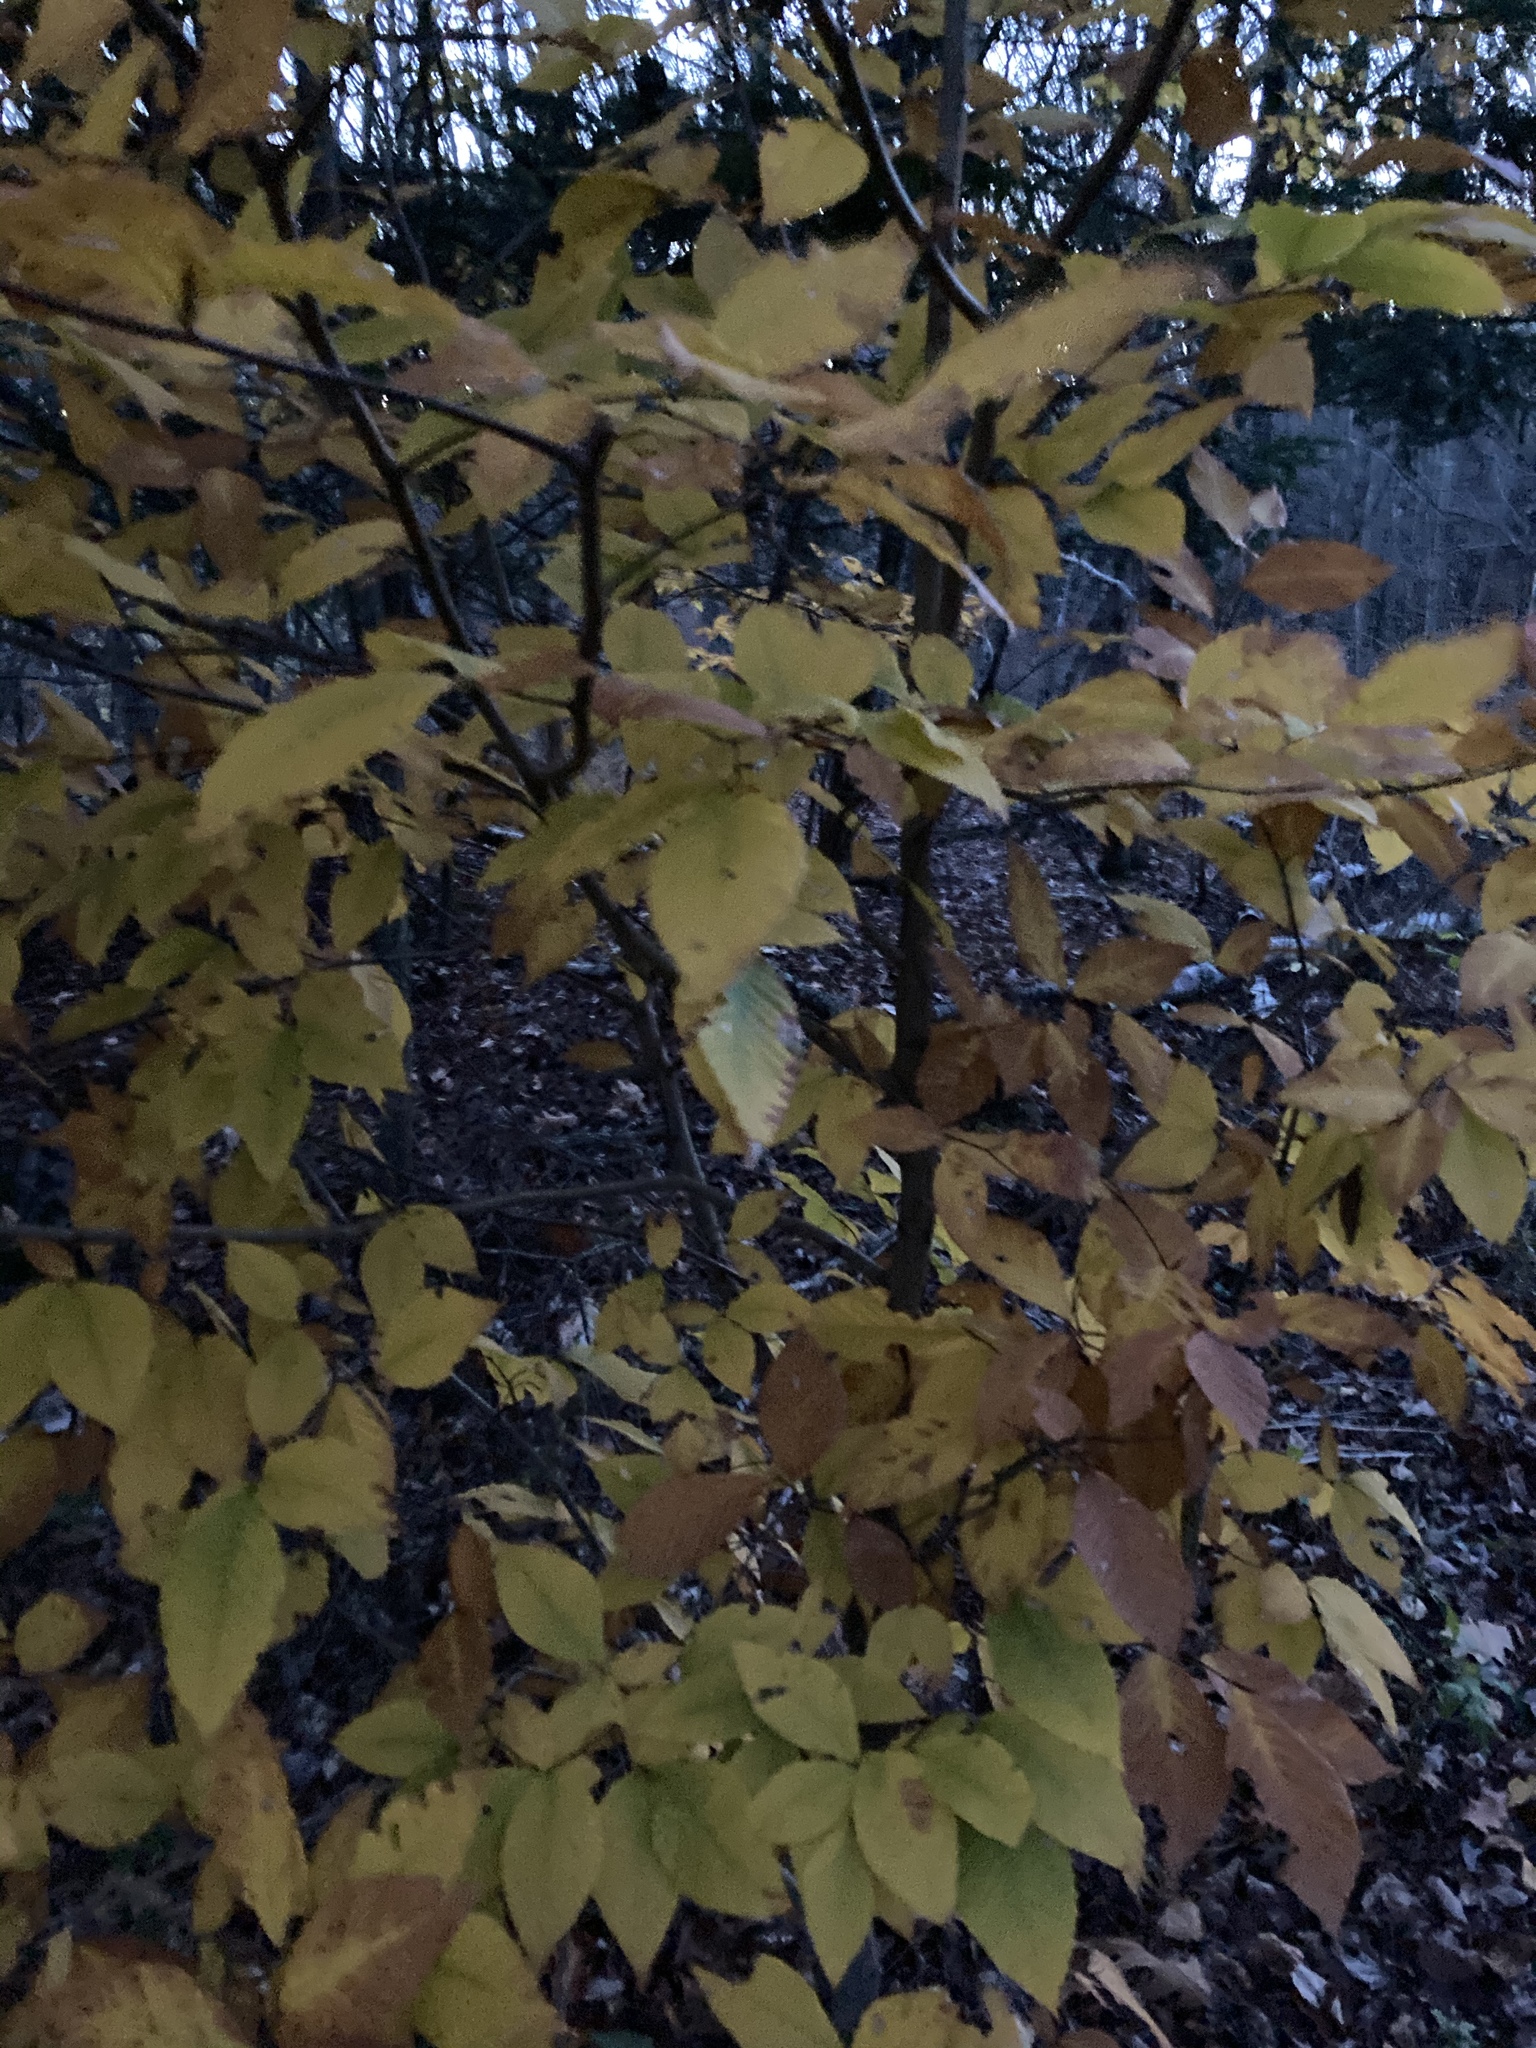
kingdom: Plantae
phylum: Tracheophyta
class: Magnoliopsida
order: Fagales
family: Fagaceae
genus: Fagus
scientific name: Fagus grandifolia
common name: American beech
